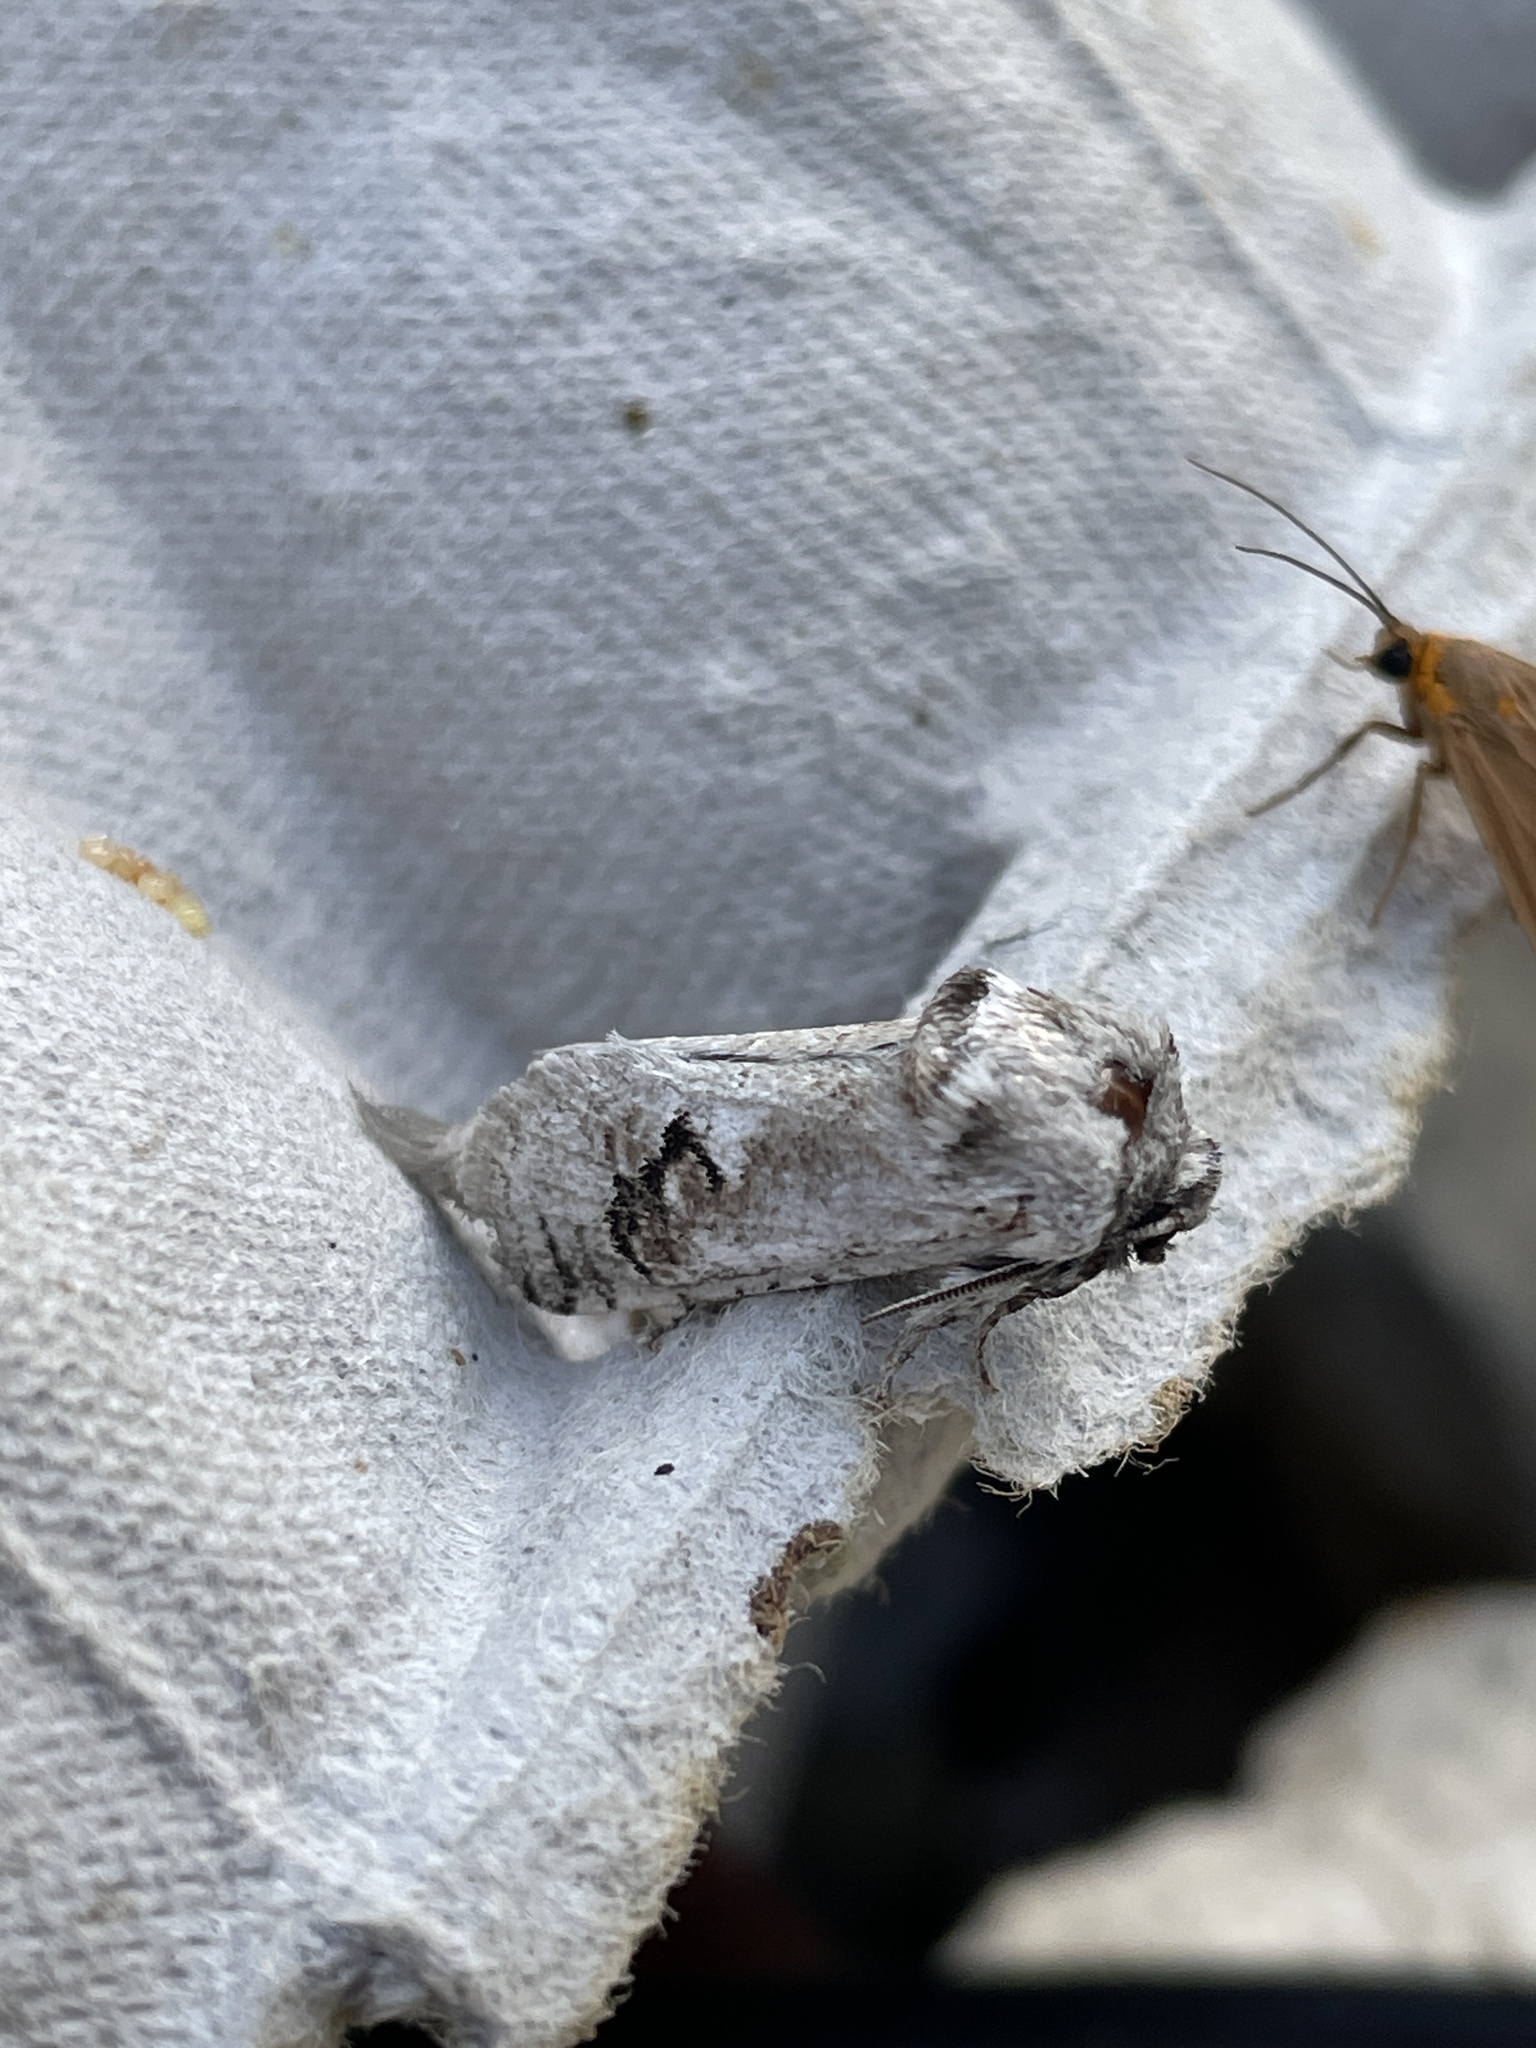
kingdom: Animalia
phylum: Arthropoda
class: Insecta
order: Lepidoptera
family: Cossidae
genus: Parahypopta
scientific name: Parahypopta caestrum
